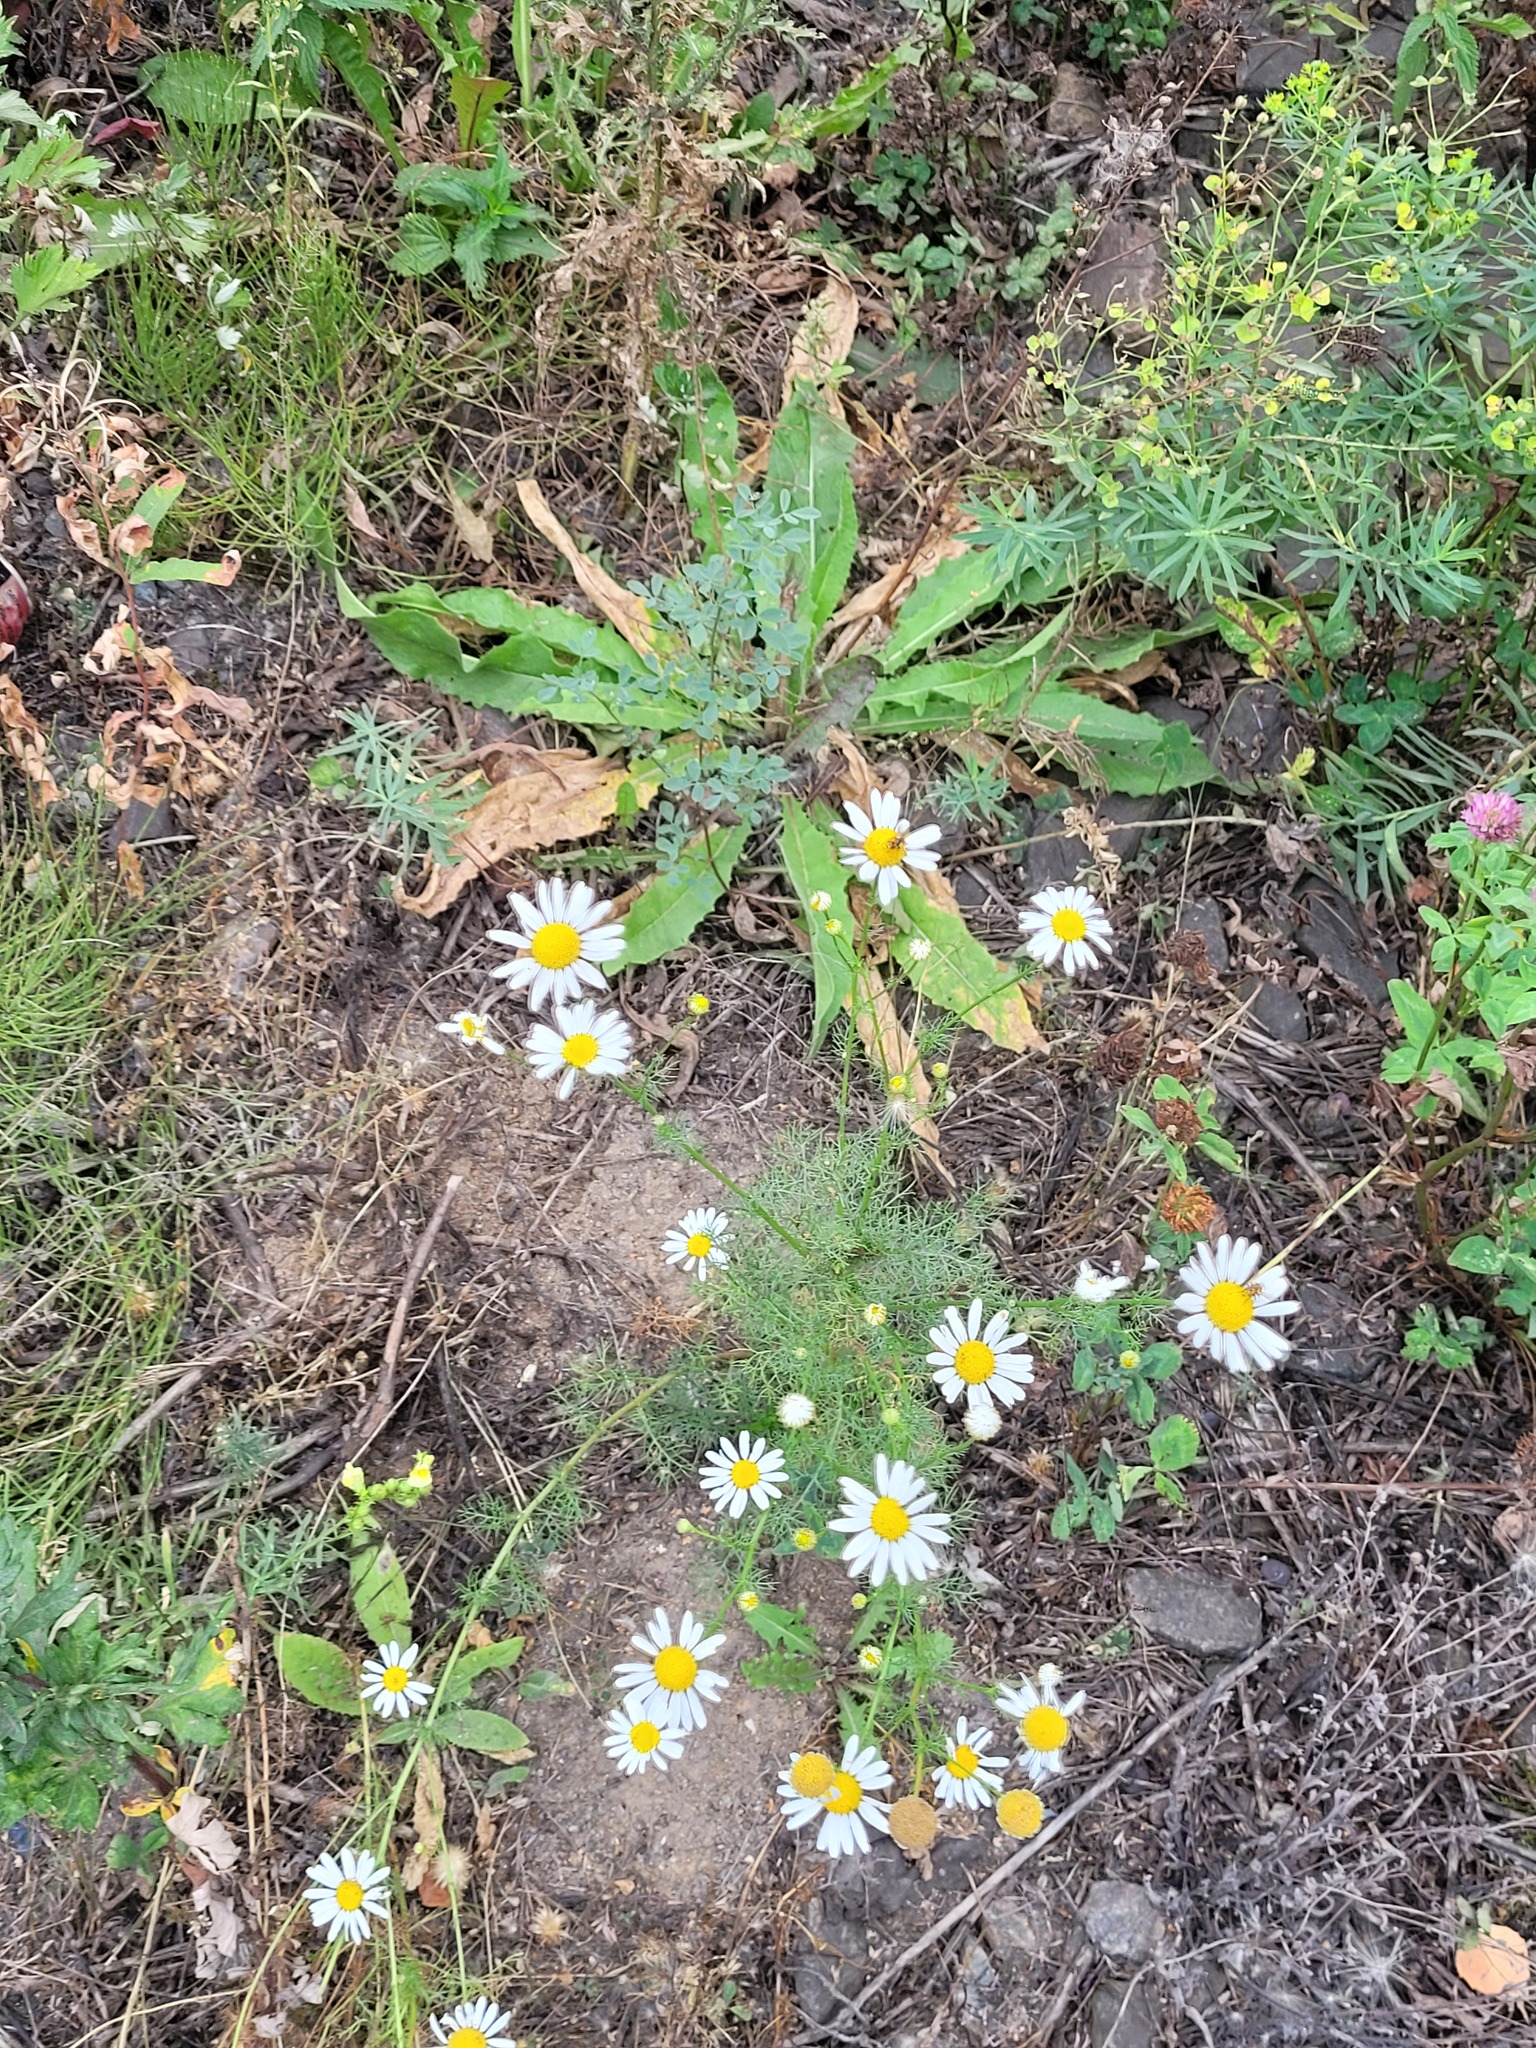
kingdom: Plantae
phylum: Tracheophyta
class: Magnoliopsida
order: Asterales
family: Asteraceae
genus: Tripleurospermum
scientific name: Tripleurospermum inodorum
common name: Scentless mayweed
